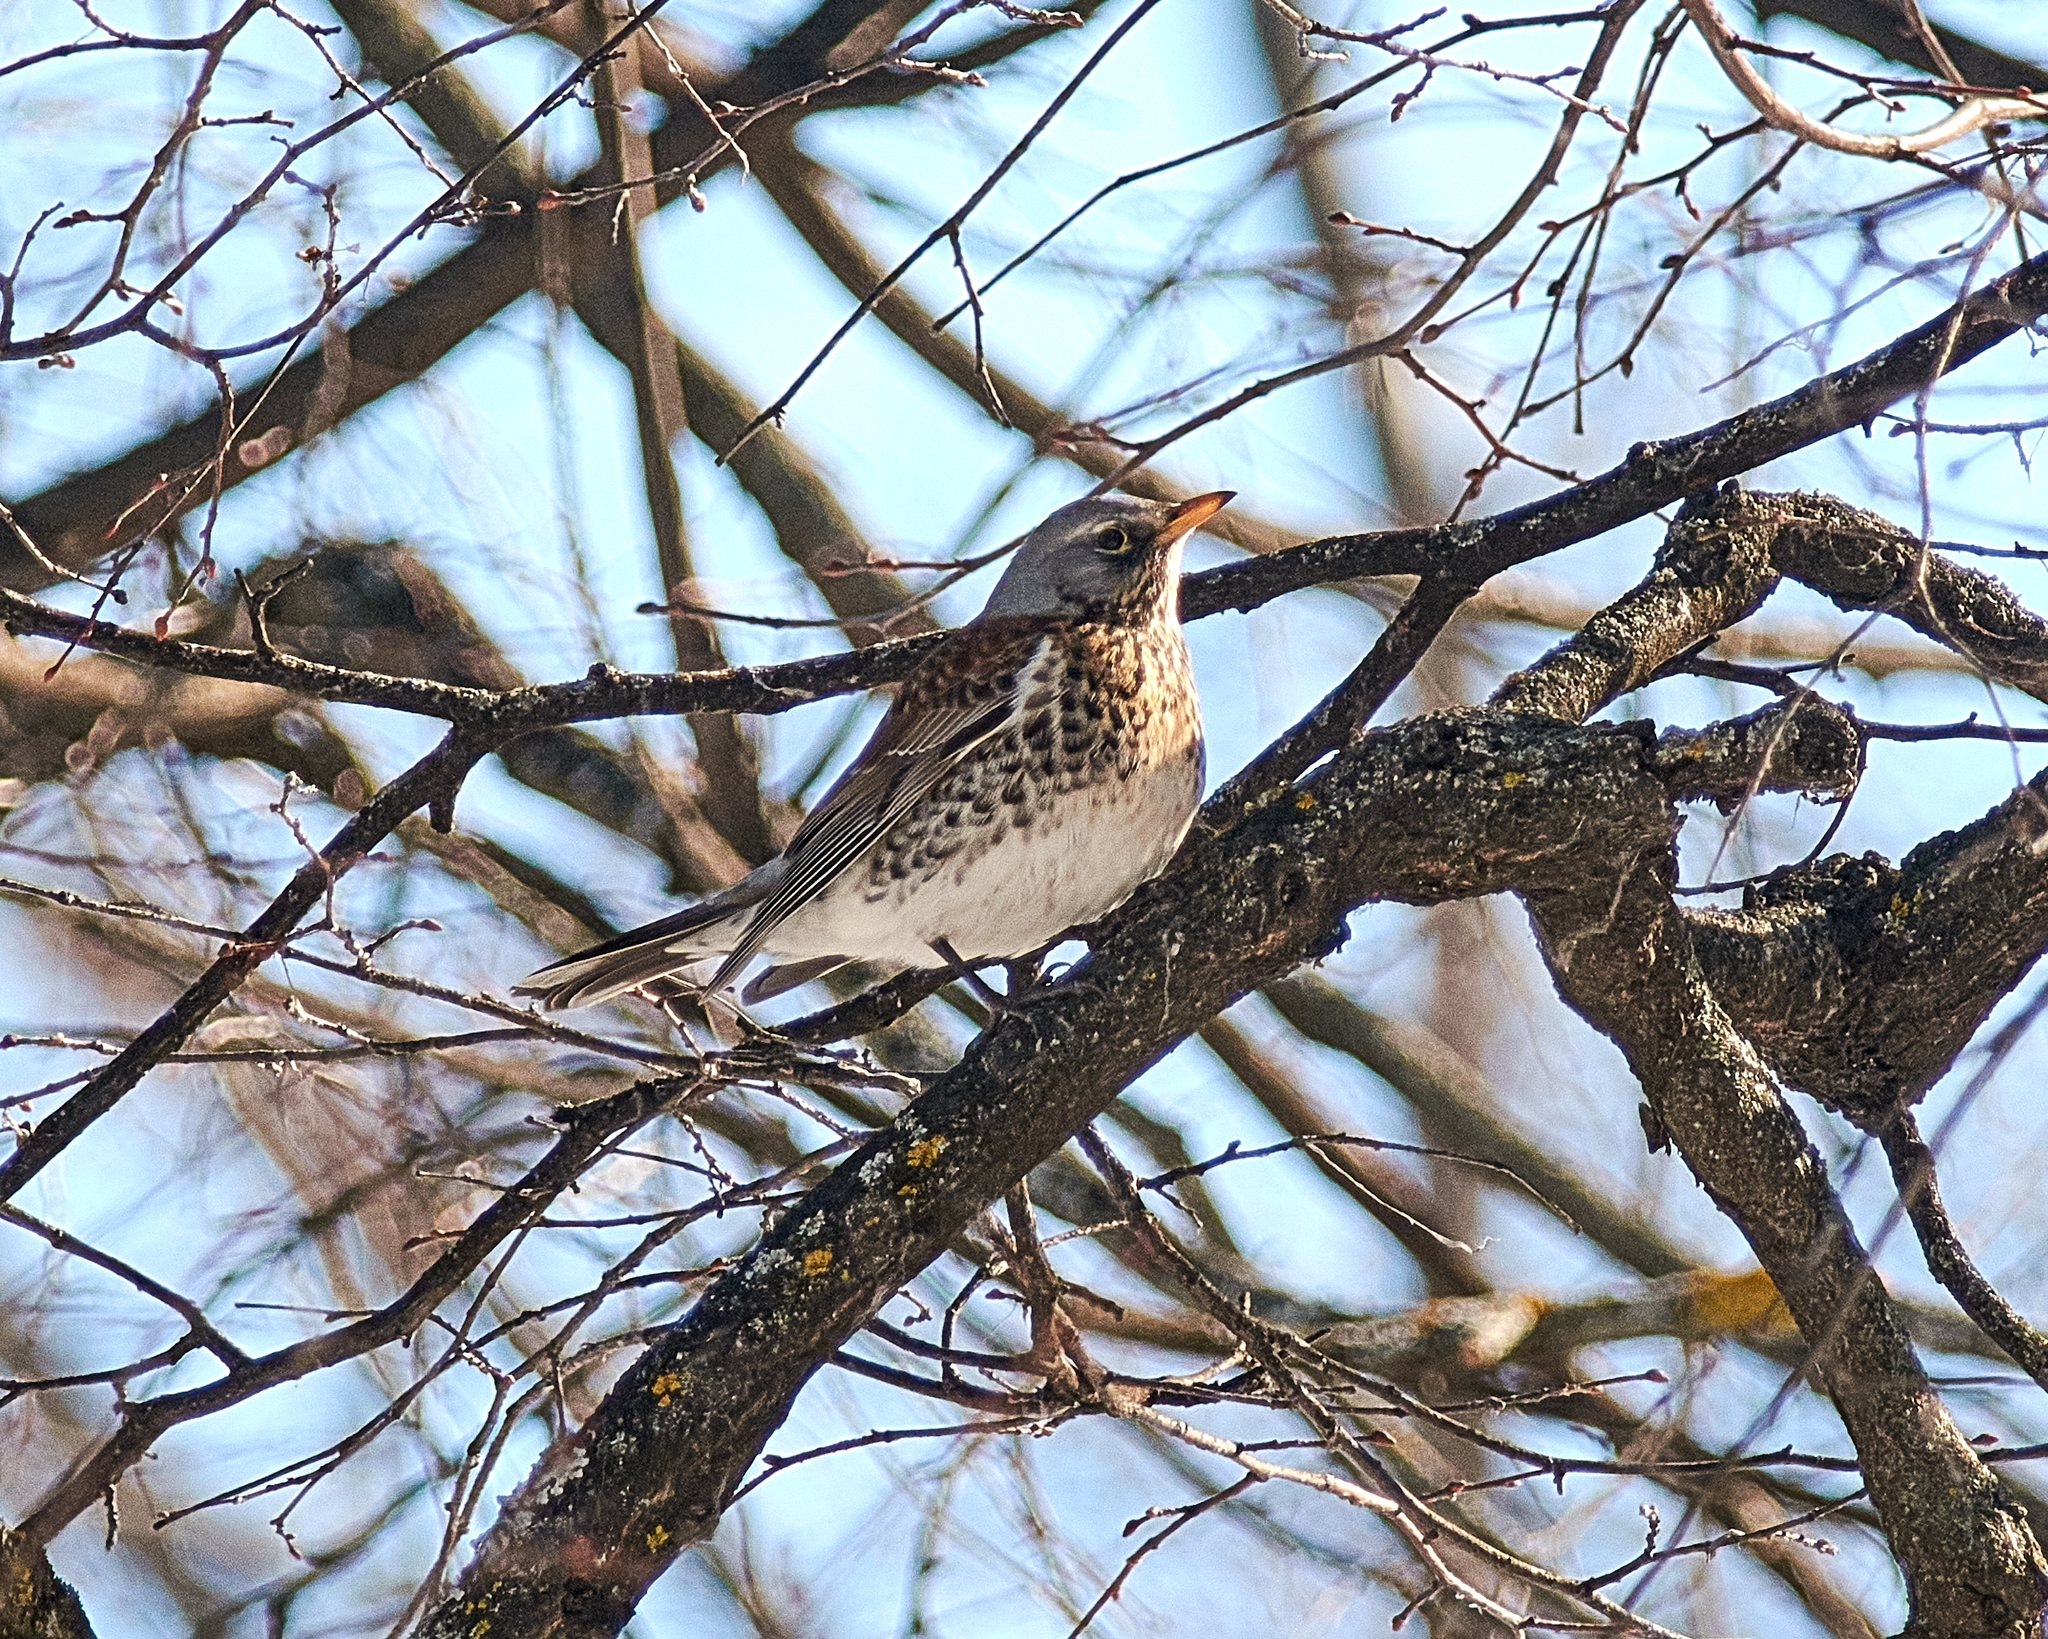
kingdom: Animalia
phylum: Chordata
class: Aves
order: Passeriformes
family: Turdidae
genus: Turdus
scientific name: Turdus pilaris
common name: Fieldfare
